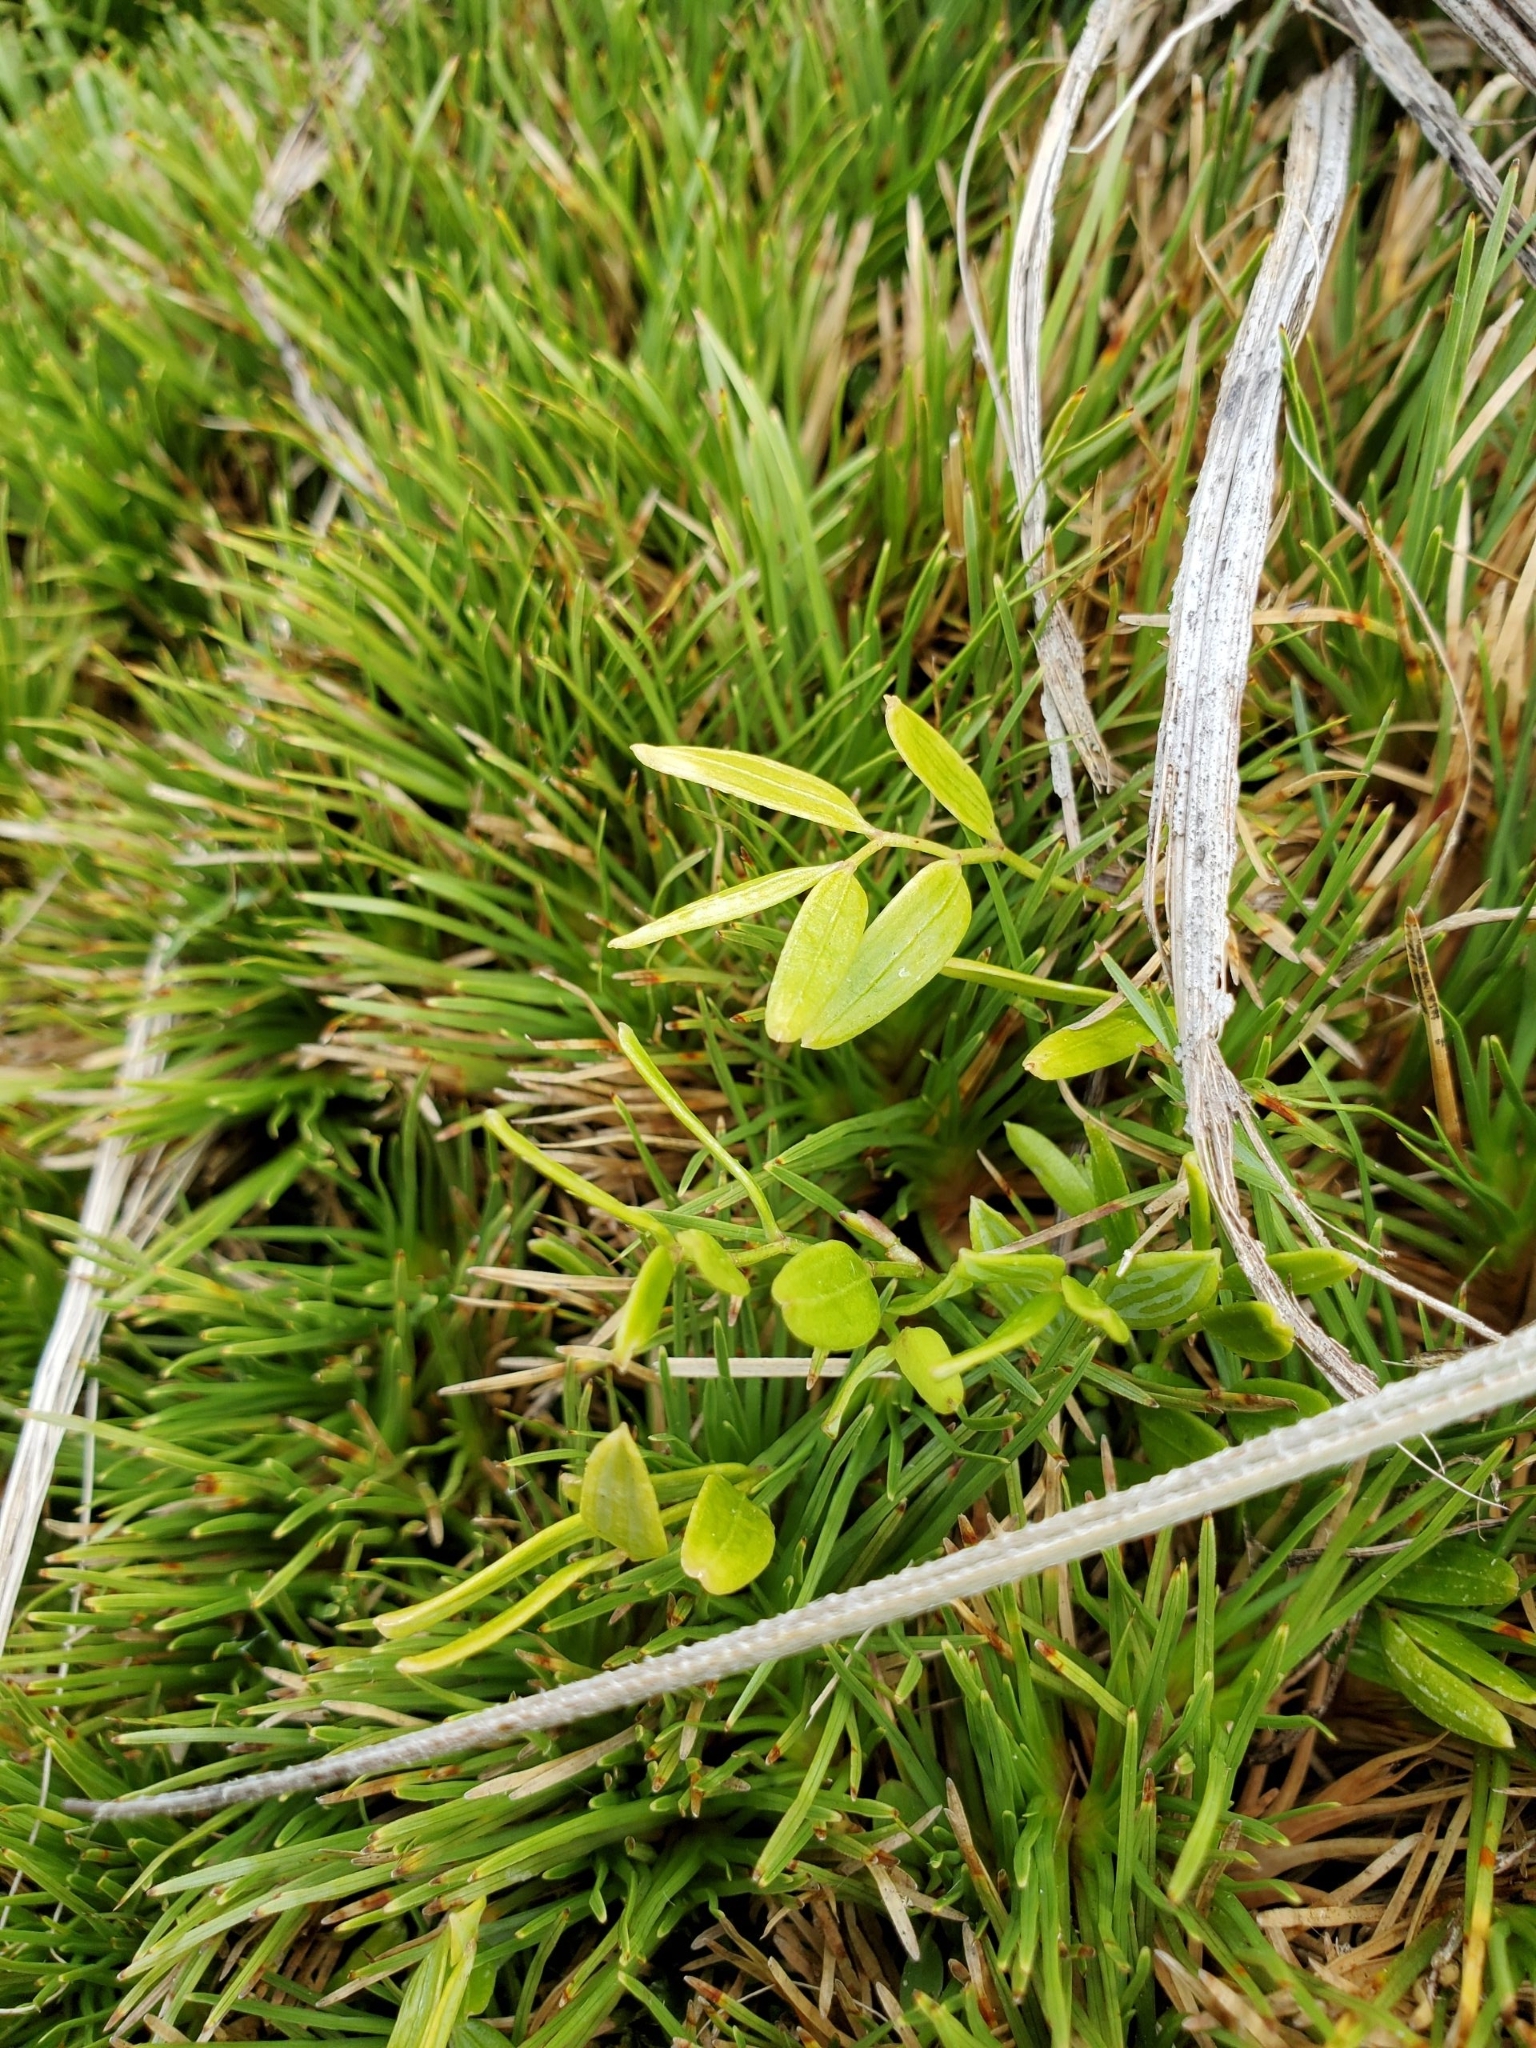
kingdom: Plantae
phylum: Tracheophyta
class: Liliopsida
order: Liliales
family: Alstroemeriaceae
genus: Luzuriaga
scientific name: Luzuriaga parviflora
